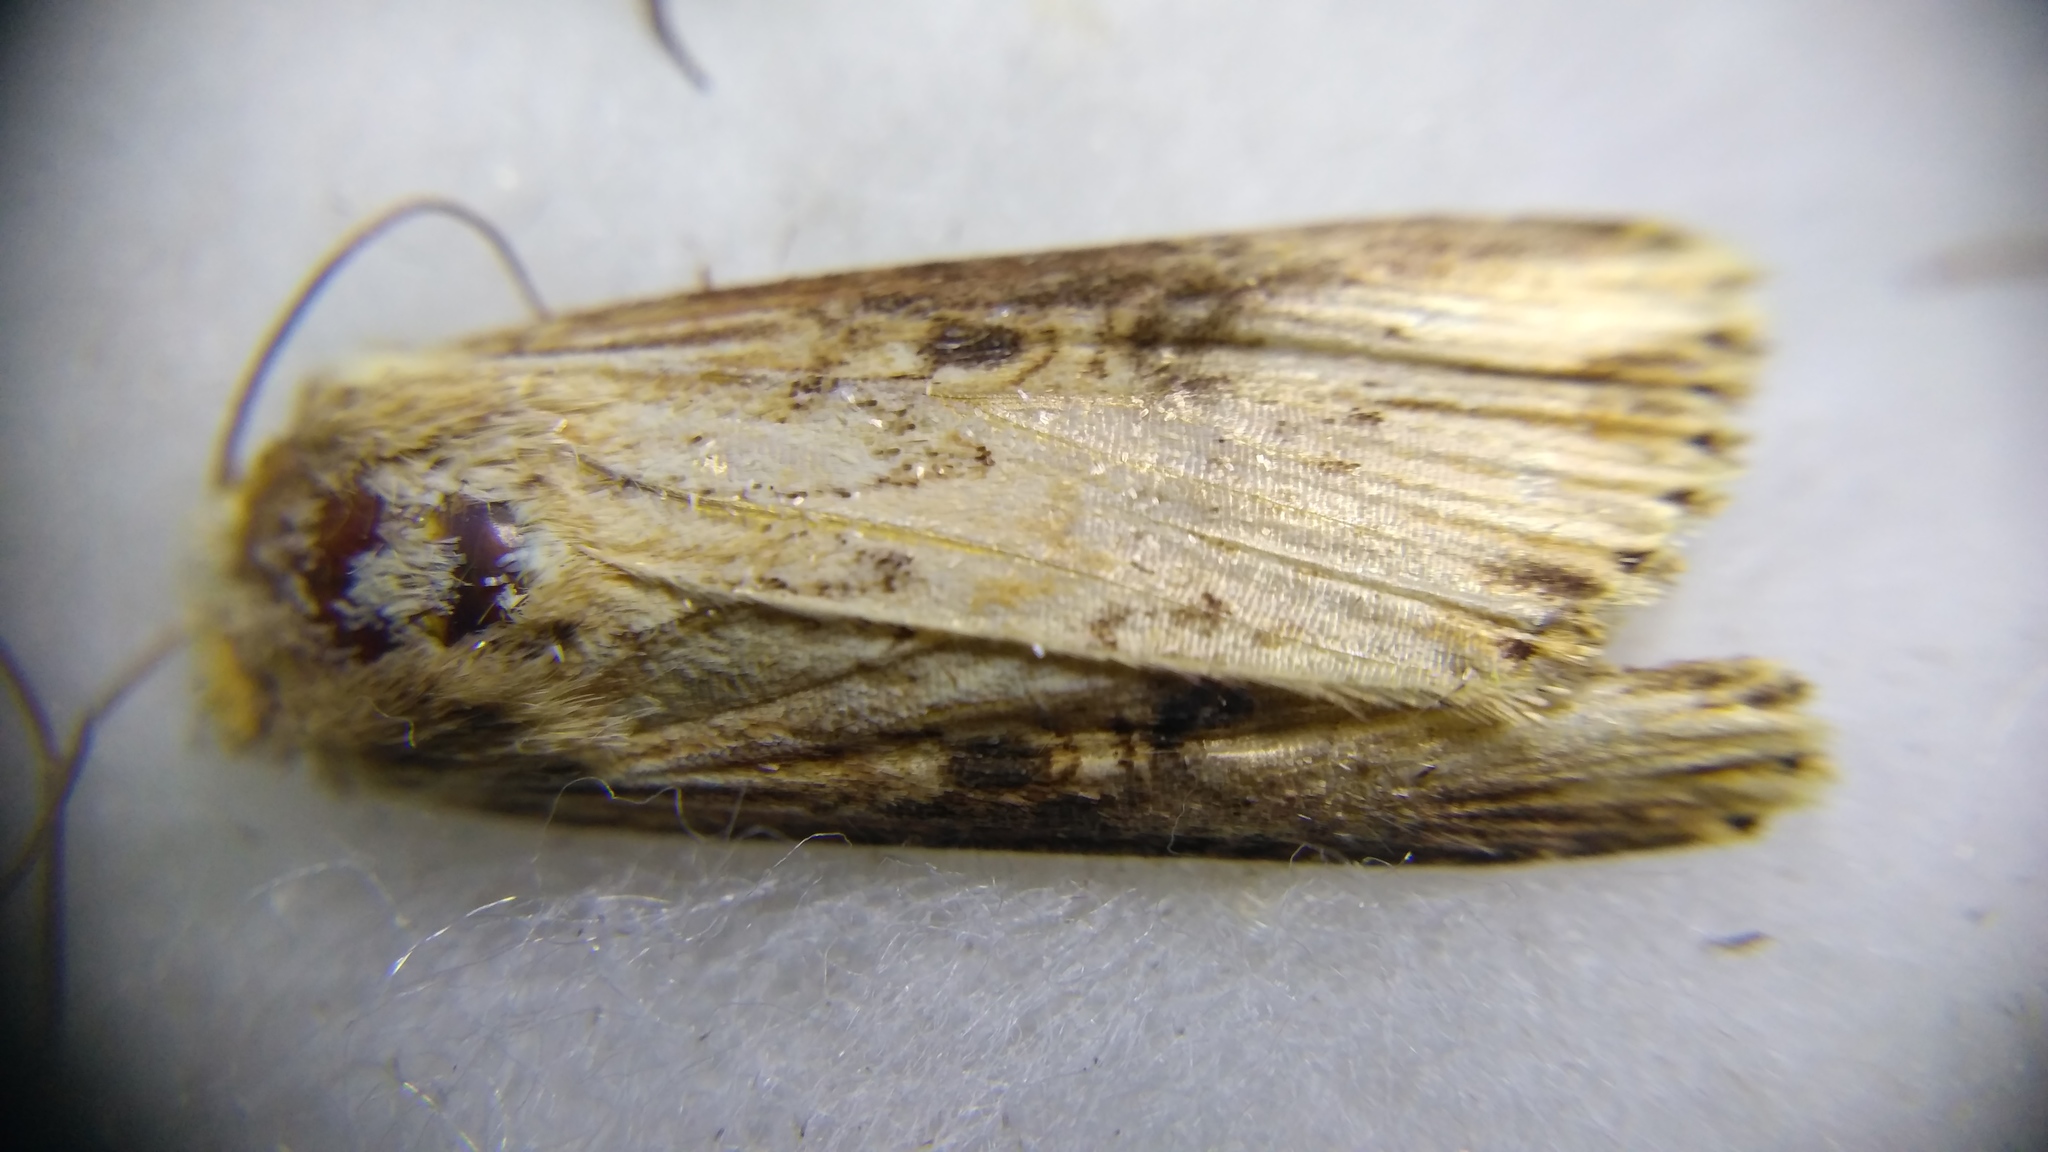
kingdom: Animalia
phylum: Arthropoda
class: Insecta
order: Lepidoptera
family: Noctuidae
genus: Axylia
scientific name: Axylia putris
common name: Flame
